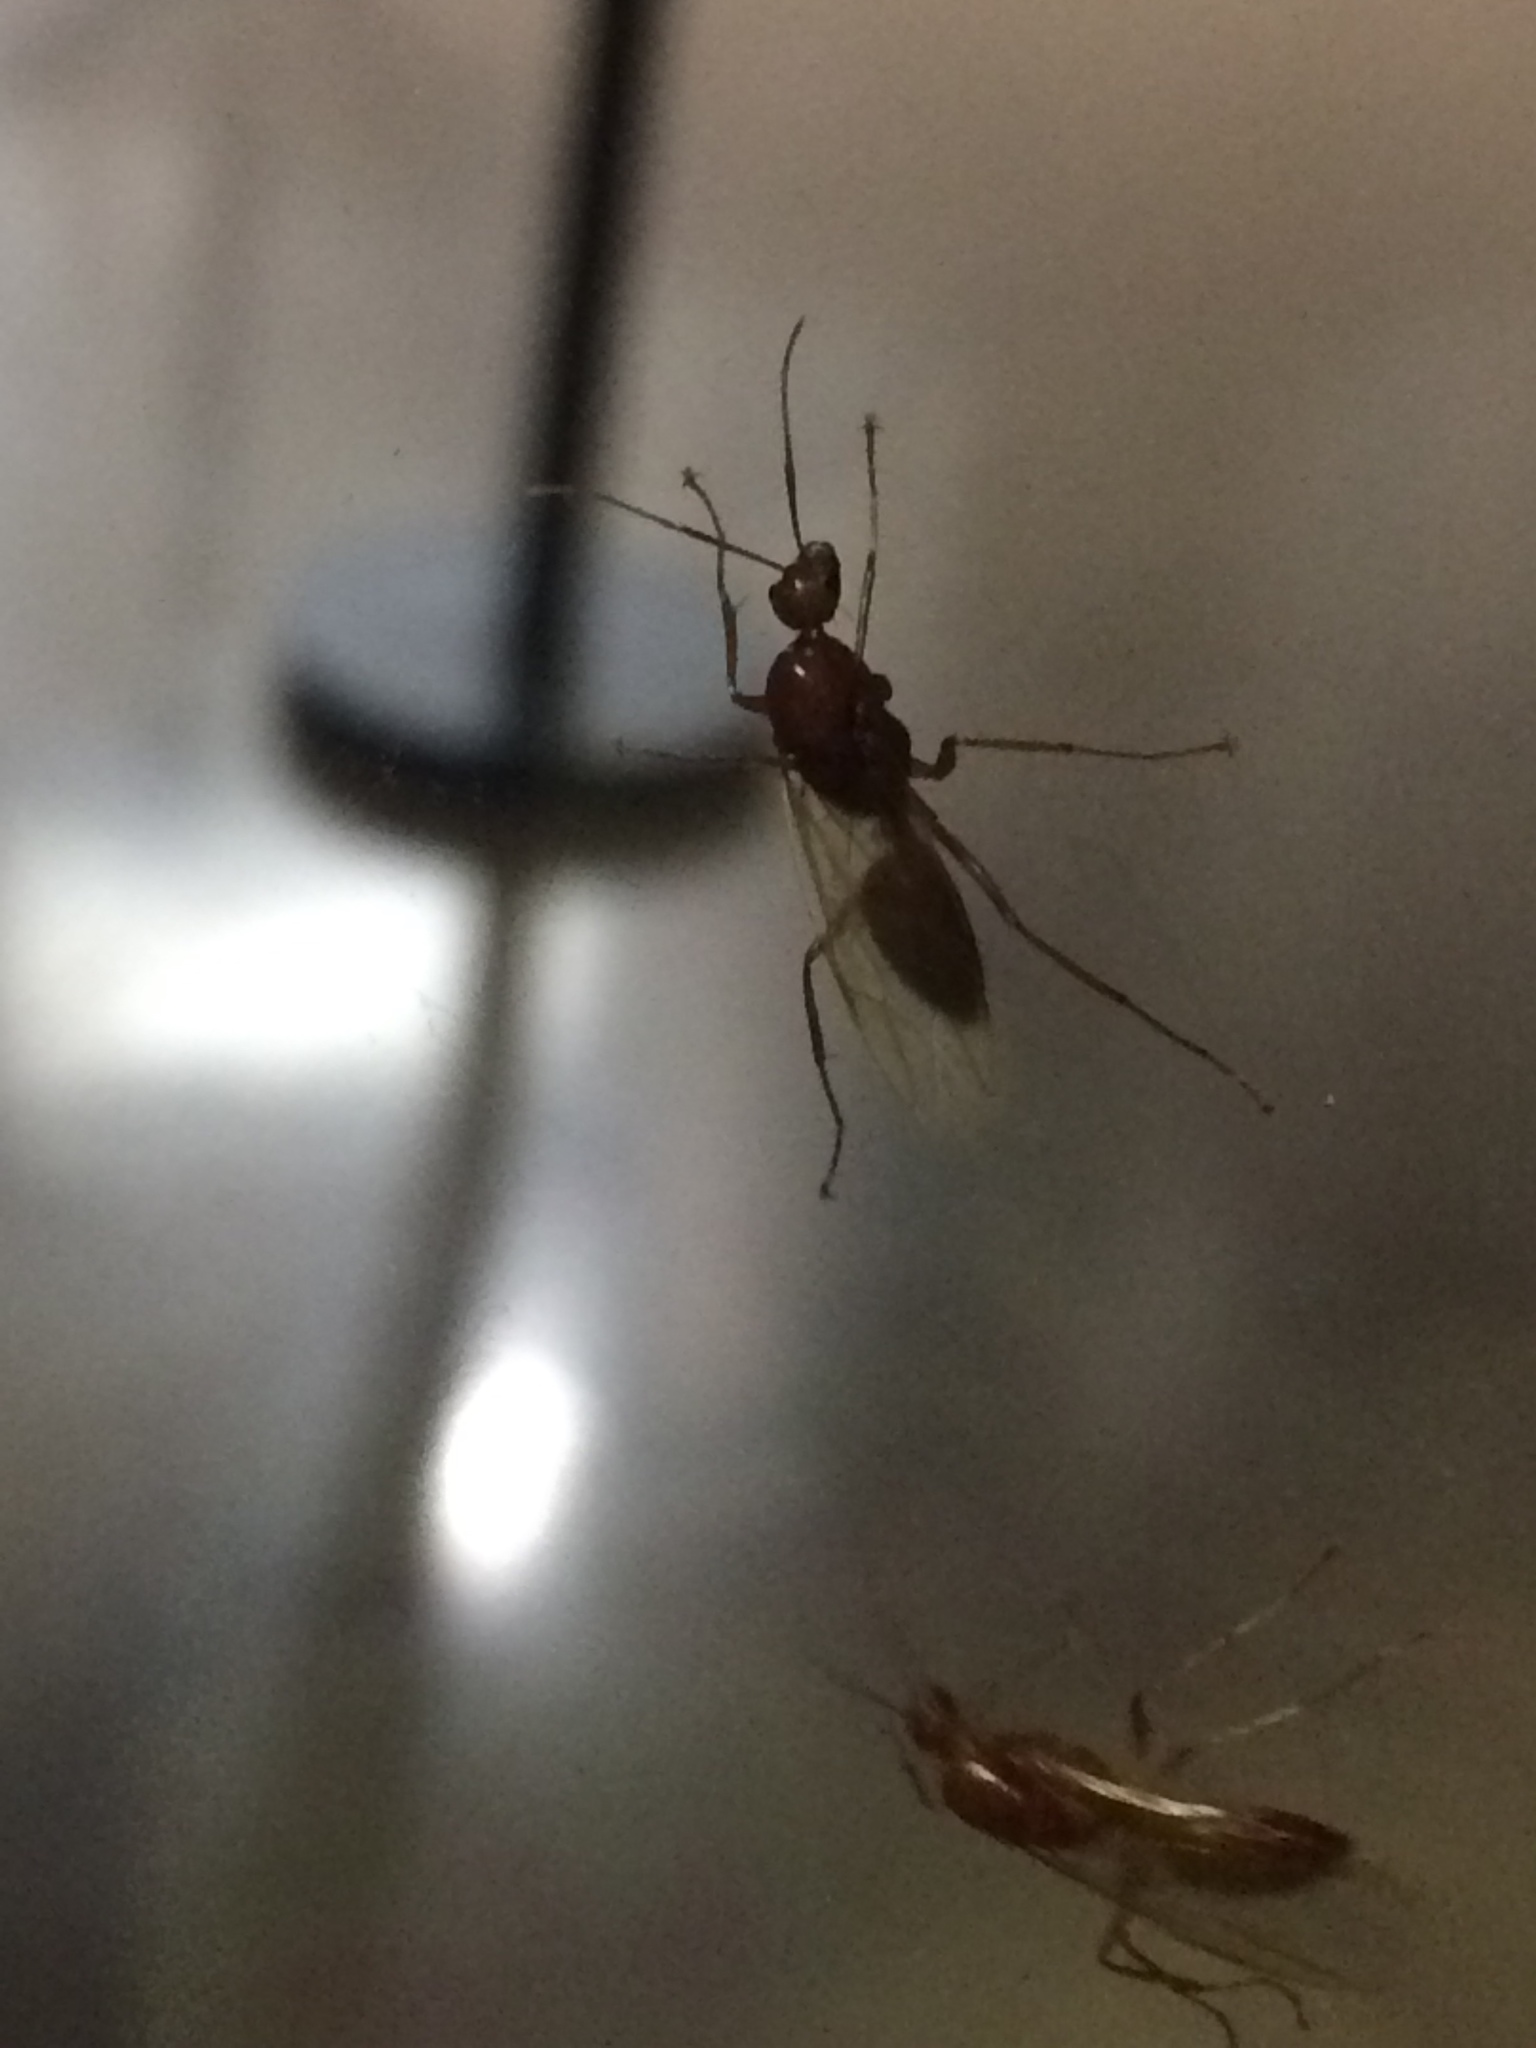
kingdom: Animalia
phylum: Arthropoda
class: Insecta
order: Hymenoptera
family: Formicidae
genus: Camponotus
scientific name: Camponotus castaneus
